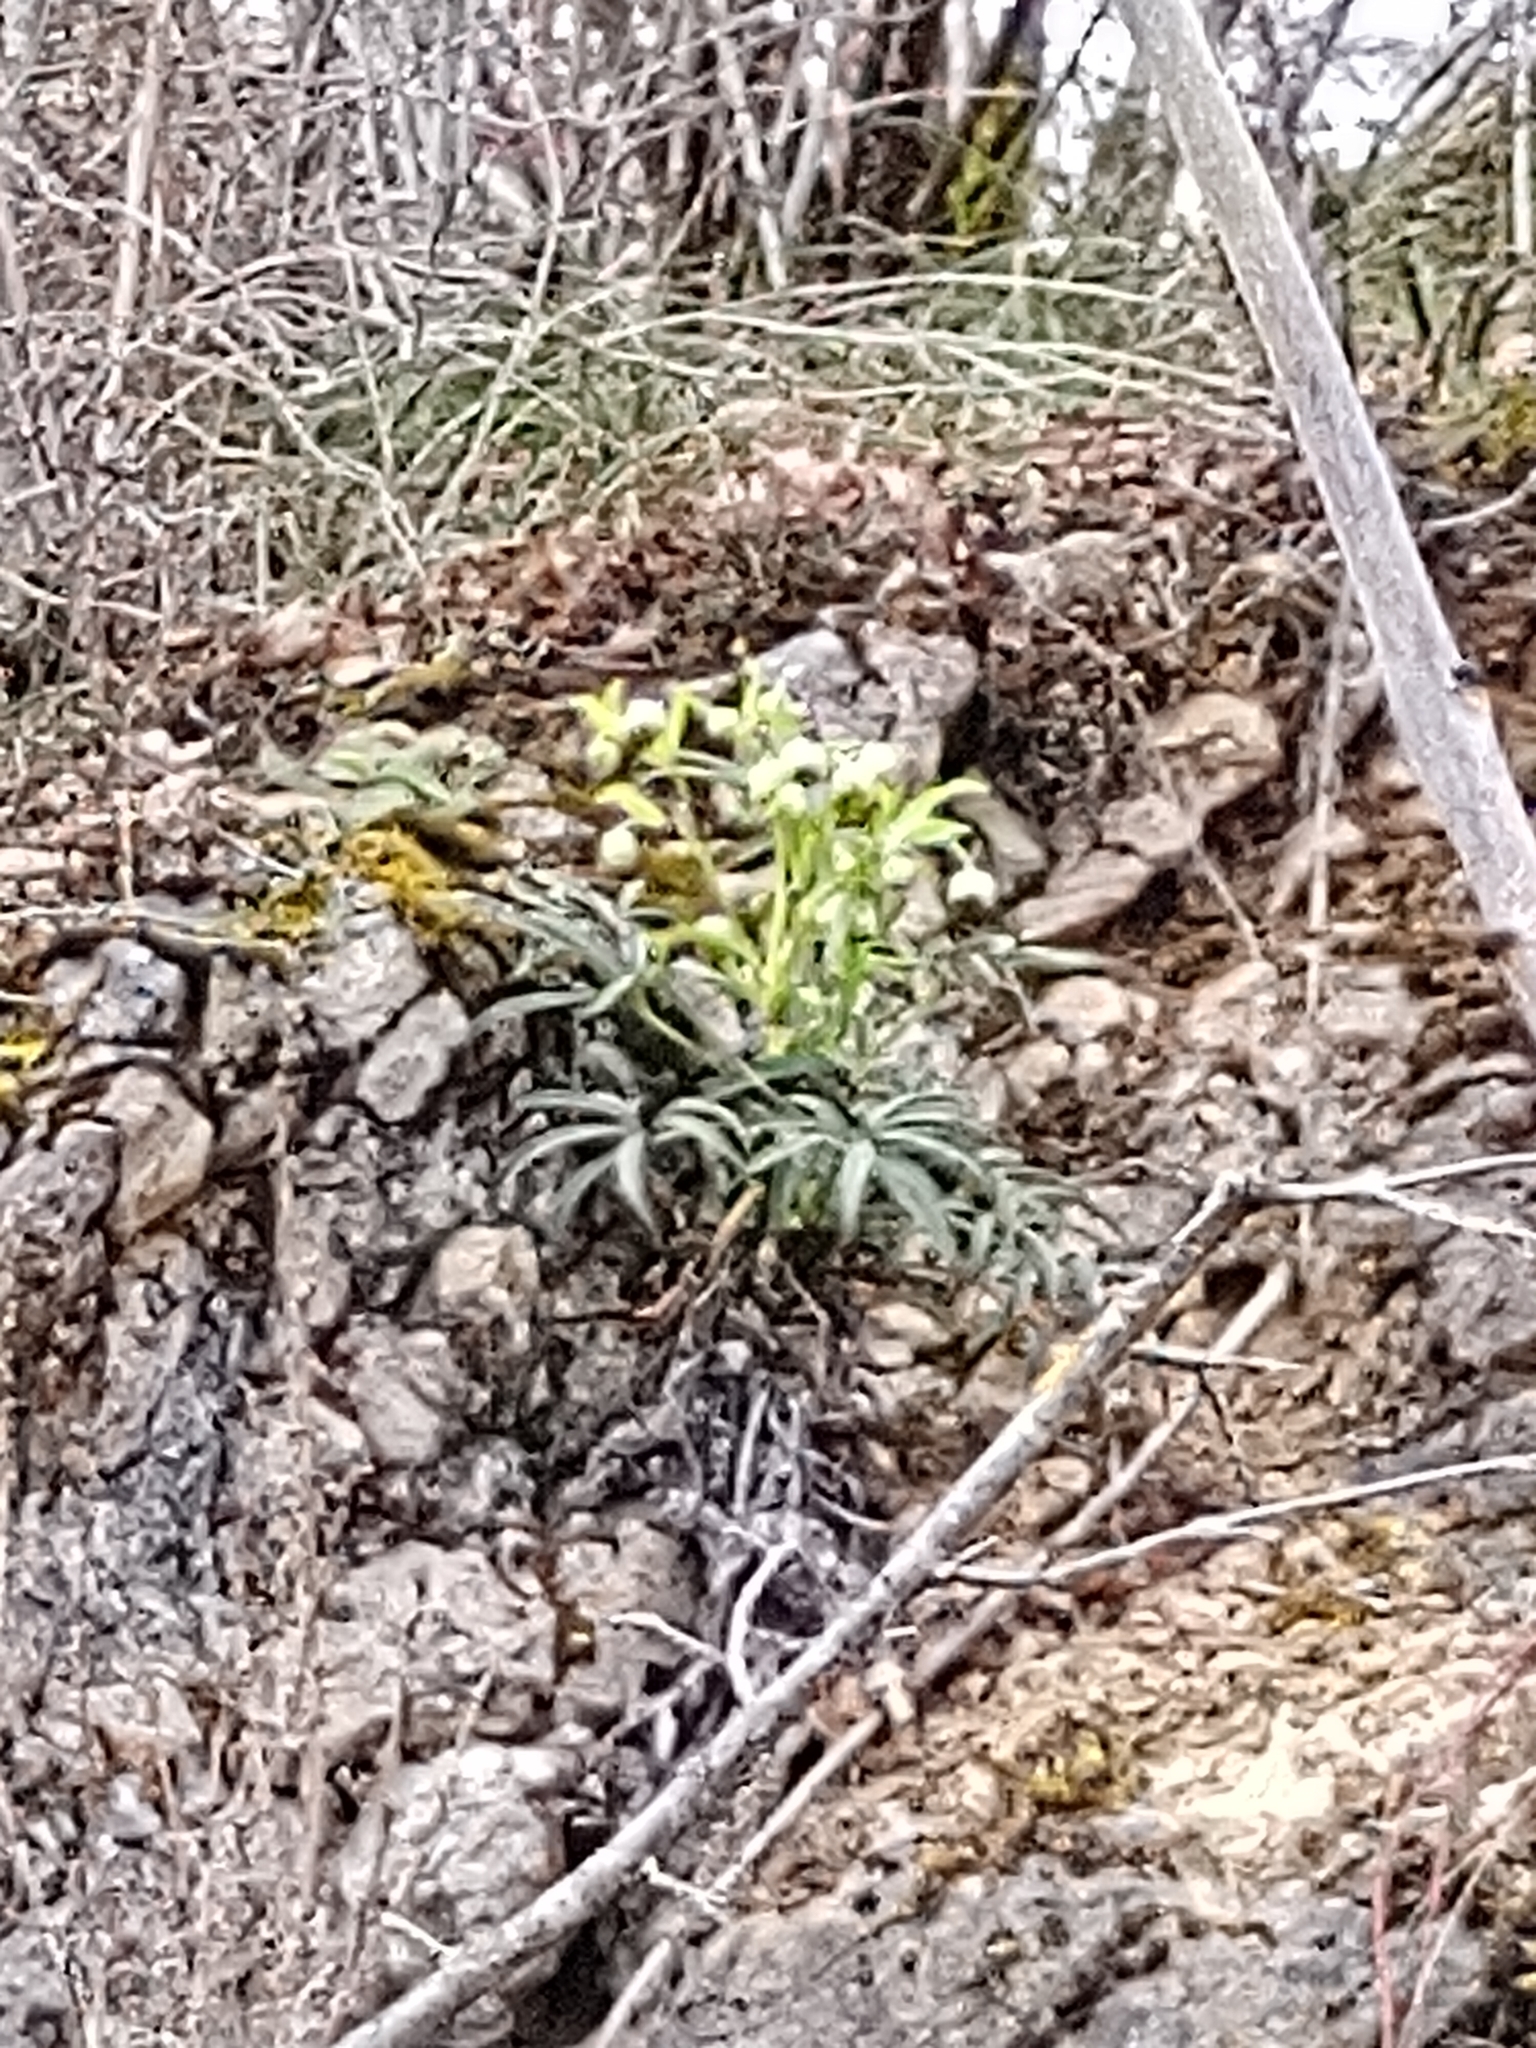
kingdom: Plantae
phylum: Tracheophyta
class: Magnoliopsida
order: Ranunculales
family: Ranunculaceae
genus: Helleborus
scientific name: Helleborus foetidus
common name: Stinking hellebore
